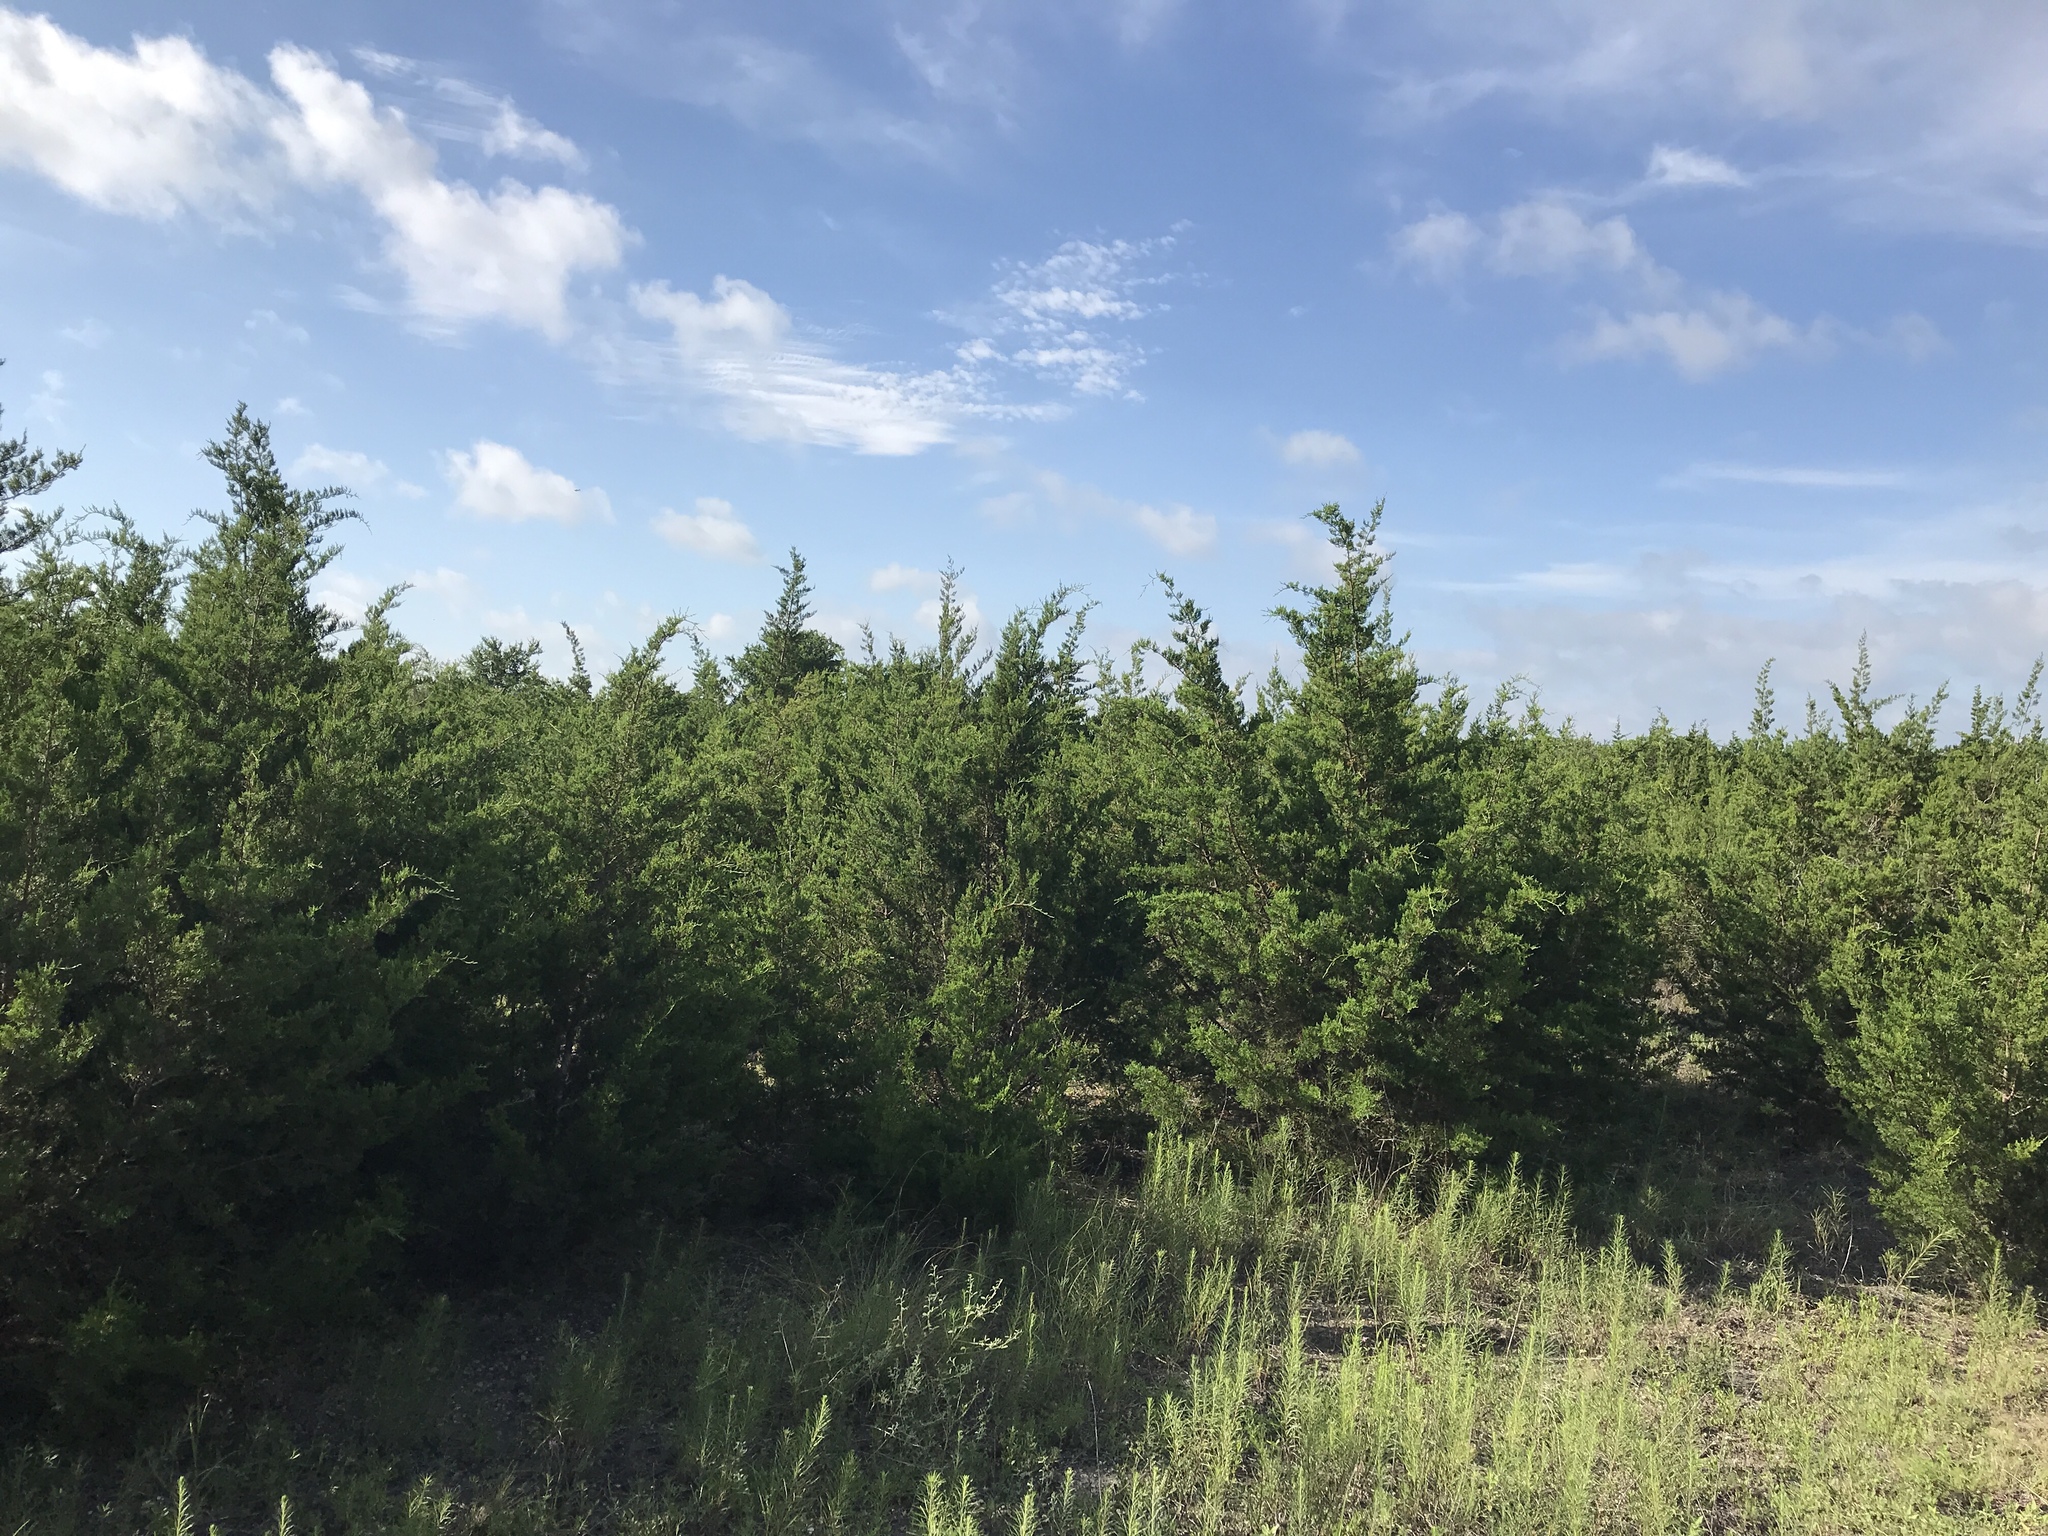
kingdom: Plantae
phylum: Tracheophyta
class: Pinopsida
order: Pinales
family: Cupressaceae
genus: Juniperus
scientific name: Juniperus ashei
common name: Mexican juniper
